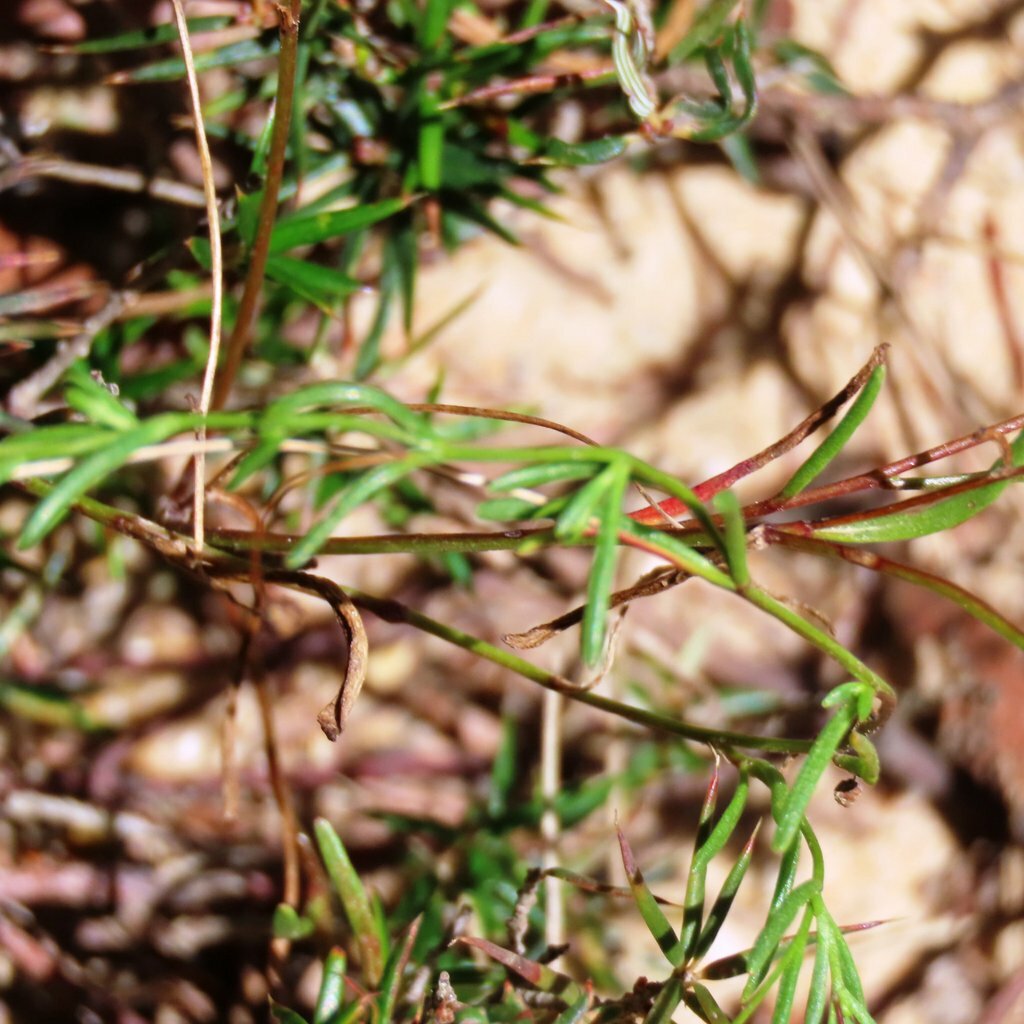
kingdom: Plantae
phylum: Tracheophyta
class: Magnoliopsida
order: Asterales
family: Asteraceae
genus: Brachyscome
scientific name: Brachyscome multifida
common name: Cut-leaf daisy
